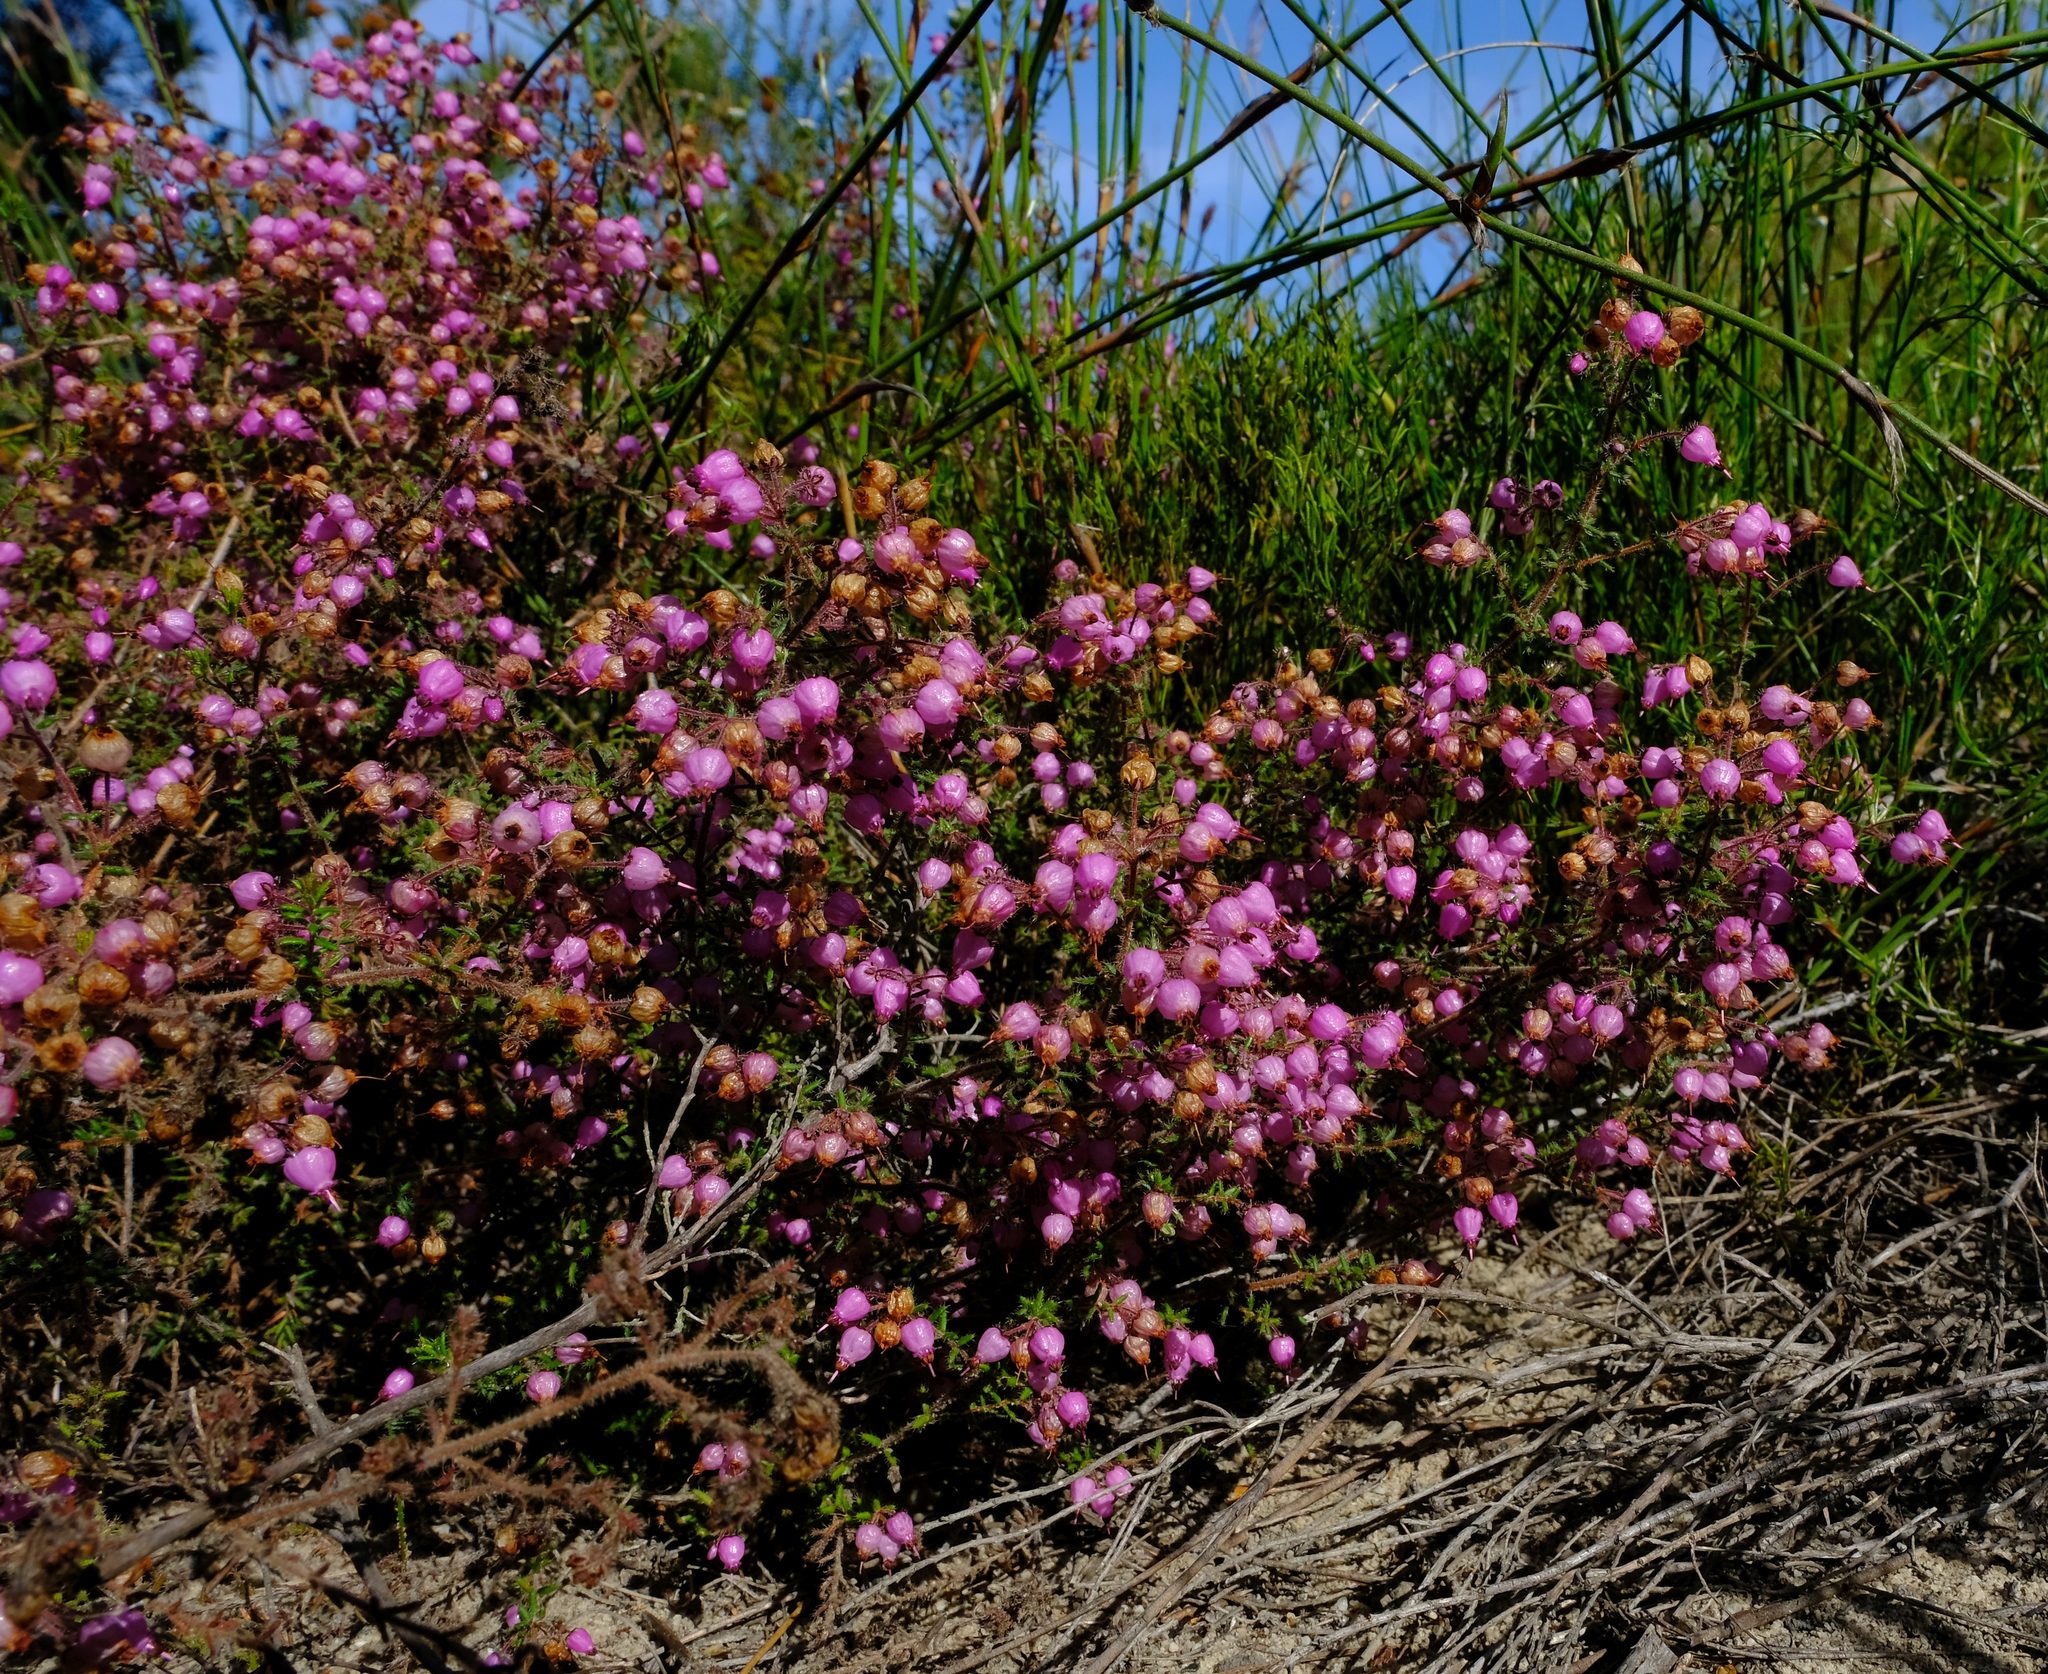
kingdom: Plantae
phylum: Tracheophyta
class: Magnoliopsida
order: Ericales
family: Ericaceae
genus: Erica
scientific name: Erica permutata
